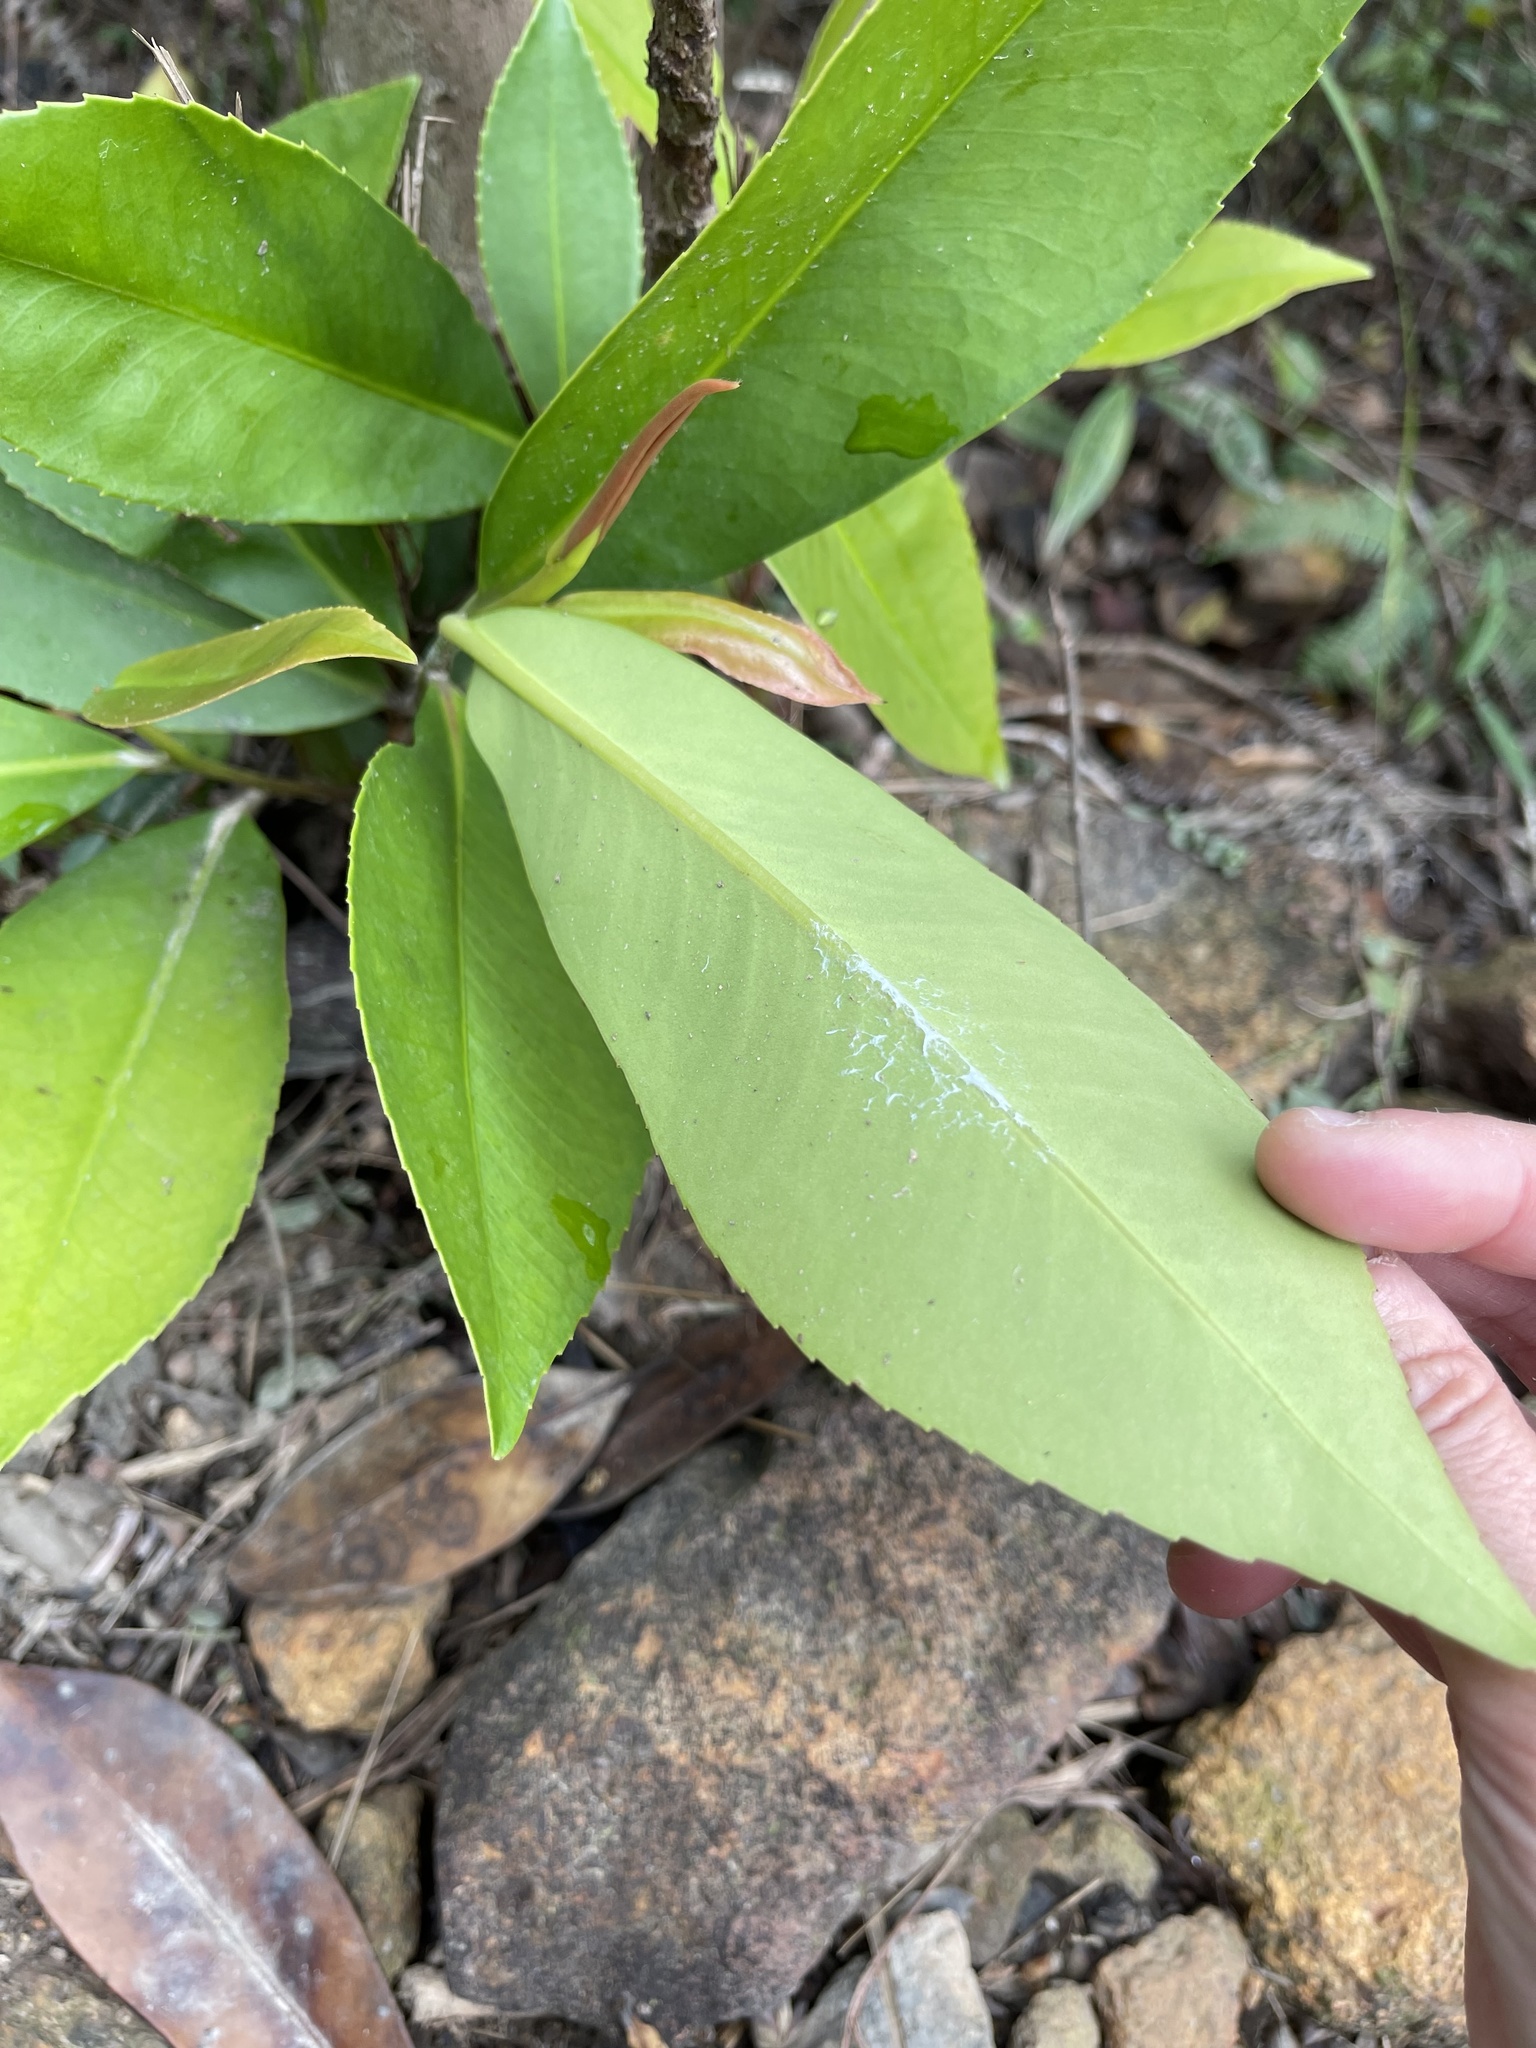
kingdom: Plantae
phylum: Tracheophyta
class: Magnoliopsida
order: Ericales
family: Theaceae
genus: Polyspora
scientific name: Polyspora axillaris
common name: Fried egg tree
